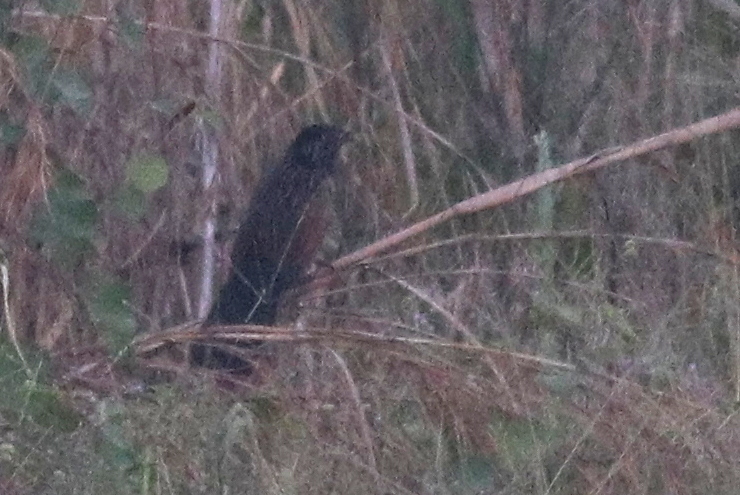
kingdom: Animalia
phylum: Chordata
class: Aves
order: Cuculiformes
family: Cuculidae
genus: Centropus
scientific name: Centropus bengalensis
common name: Lesser coucal
